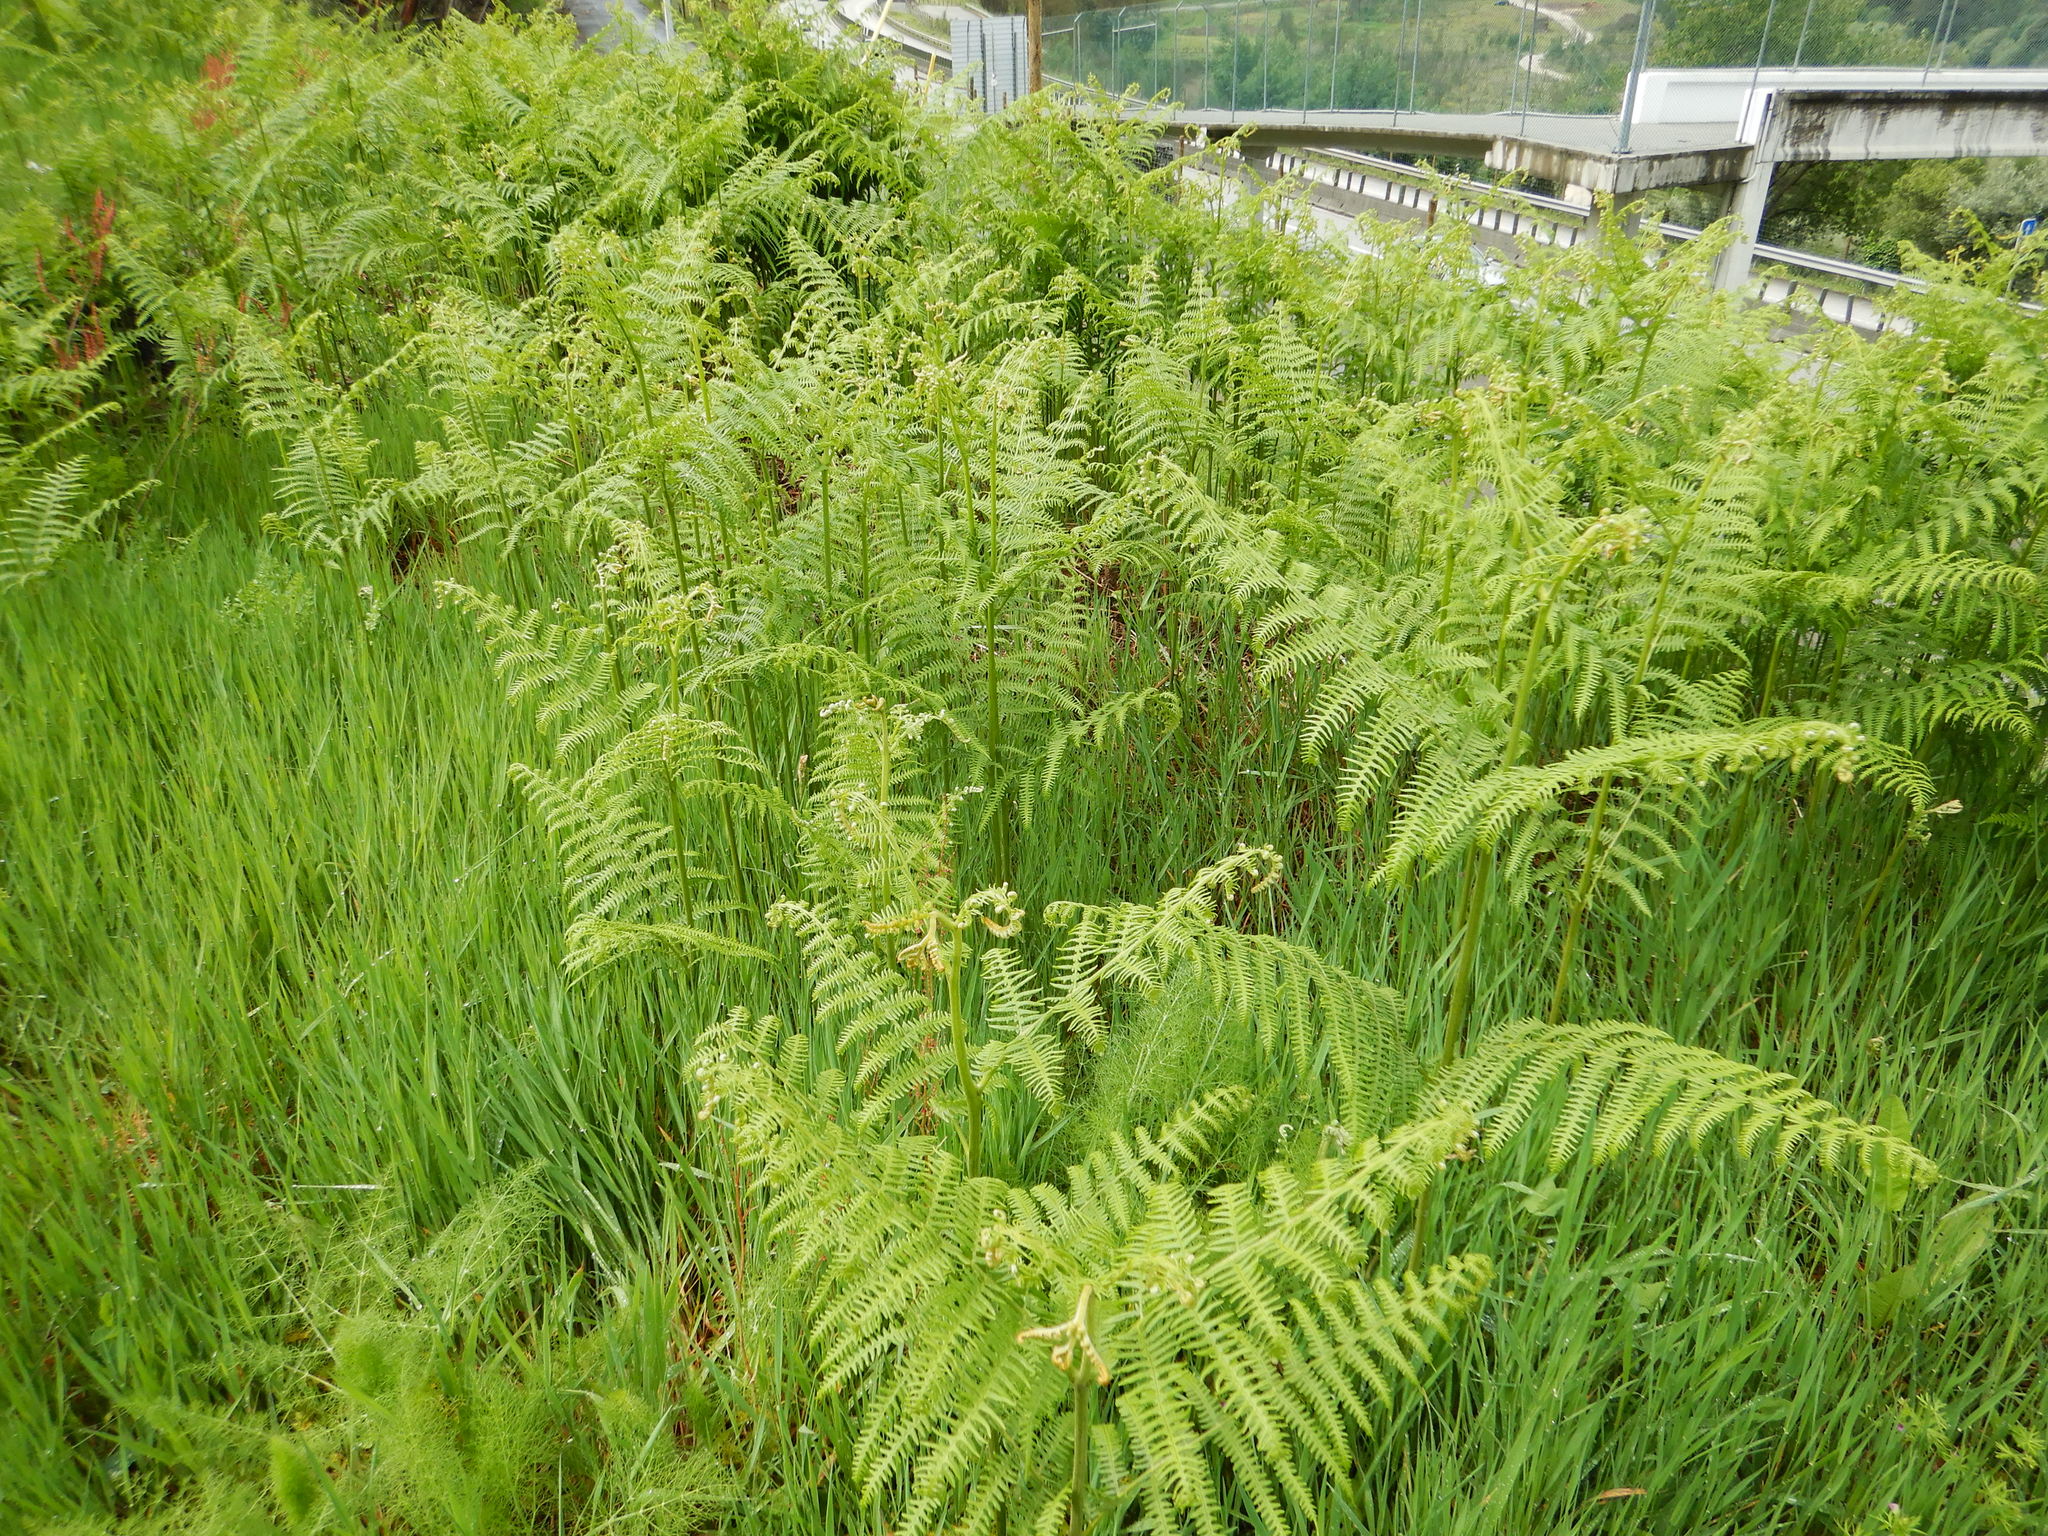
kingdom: Plantae
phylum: Tracheophyta
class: Polypodiopsida
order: Polypodiales
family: Dennstaedtiaceae
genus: Pteridium
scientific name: Pteridium aquilinum
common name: Bracken
